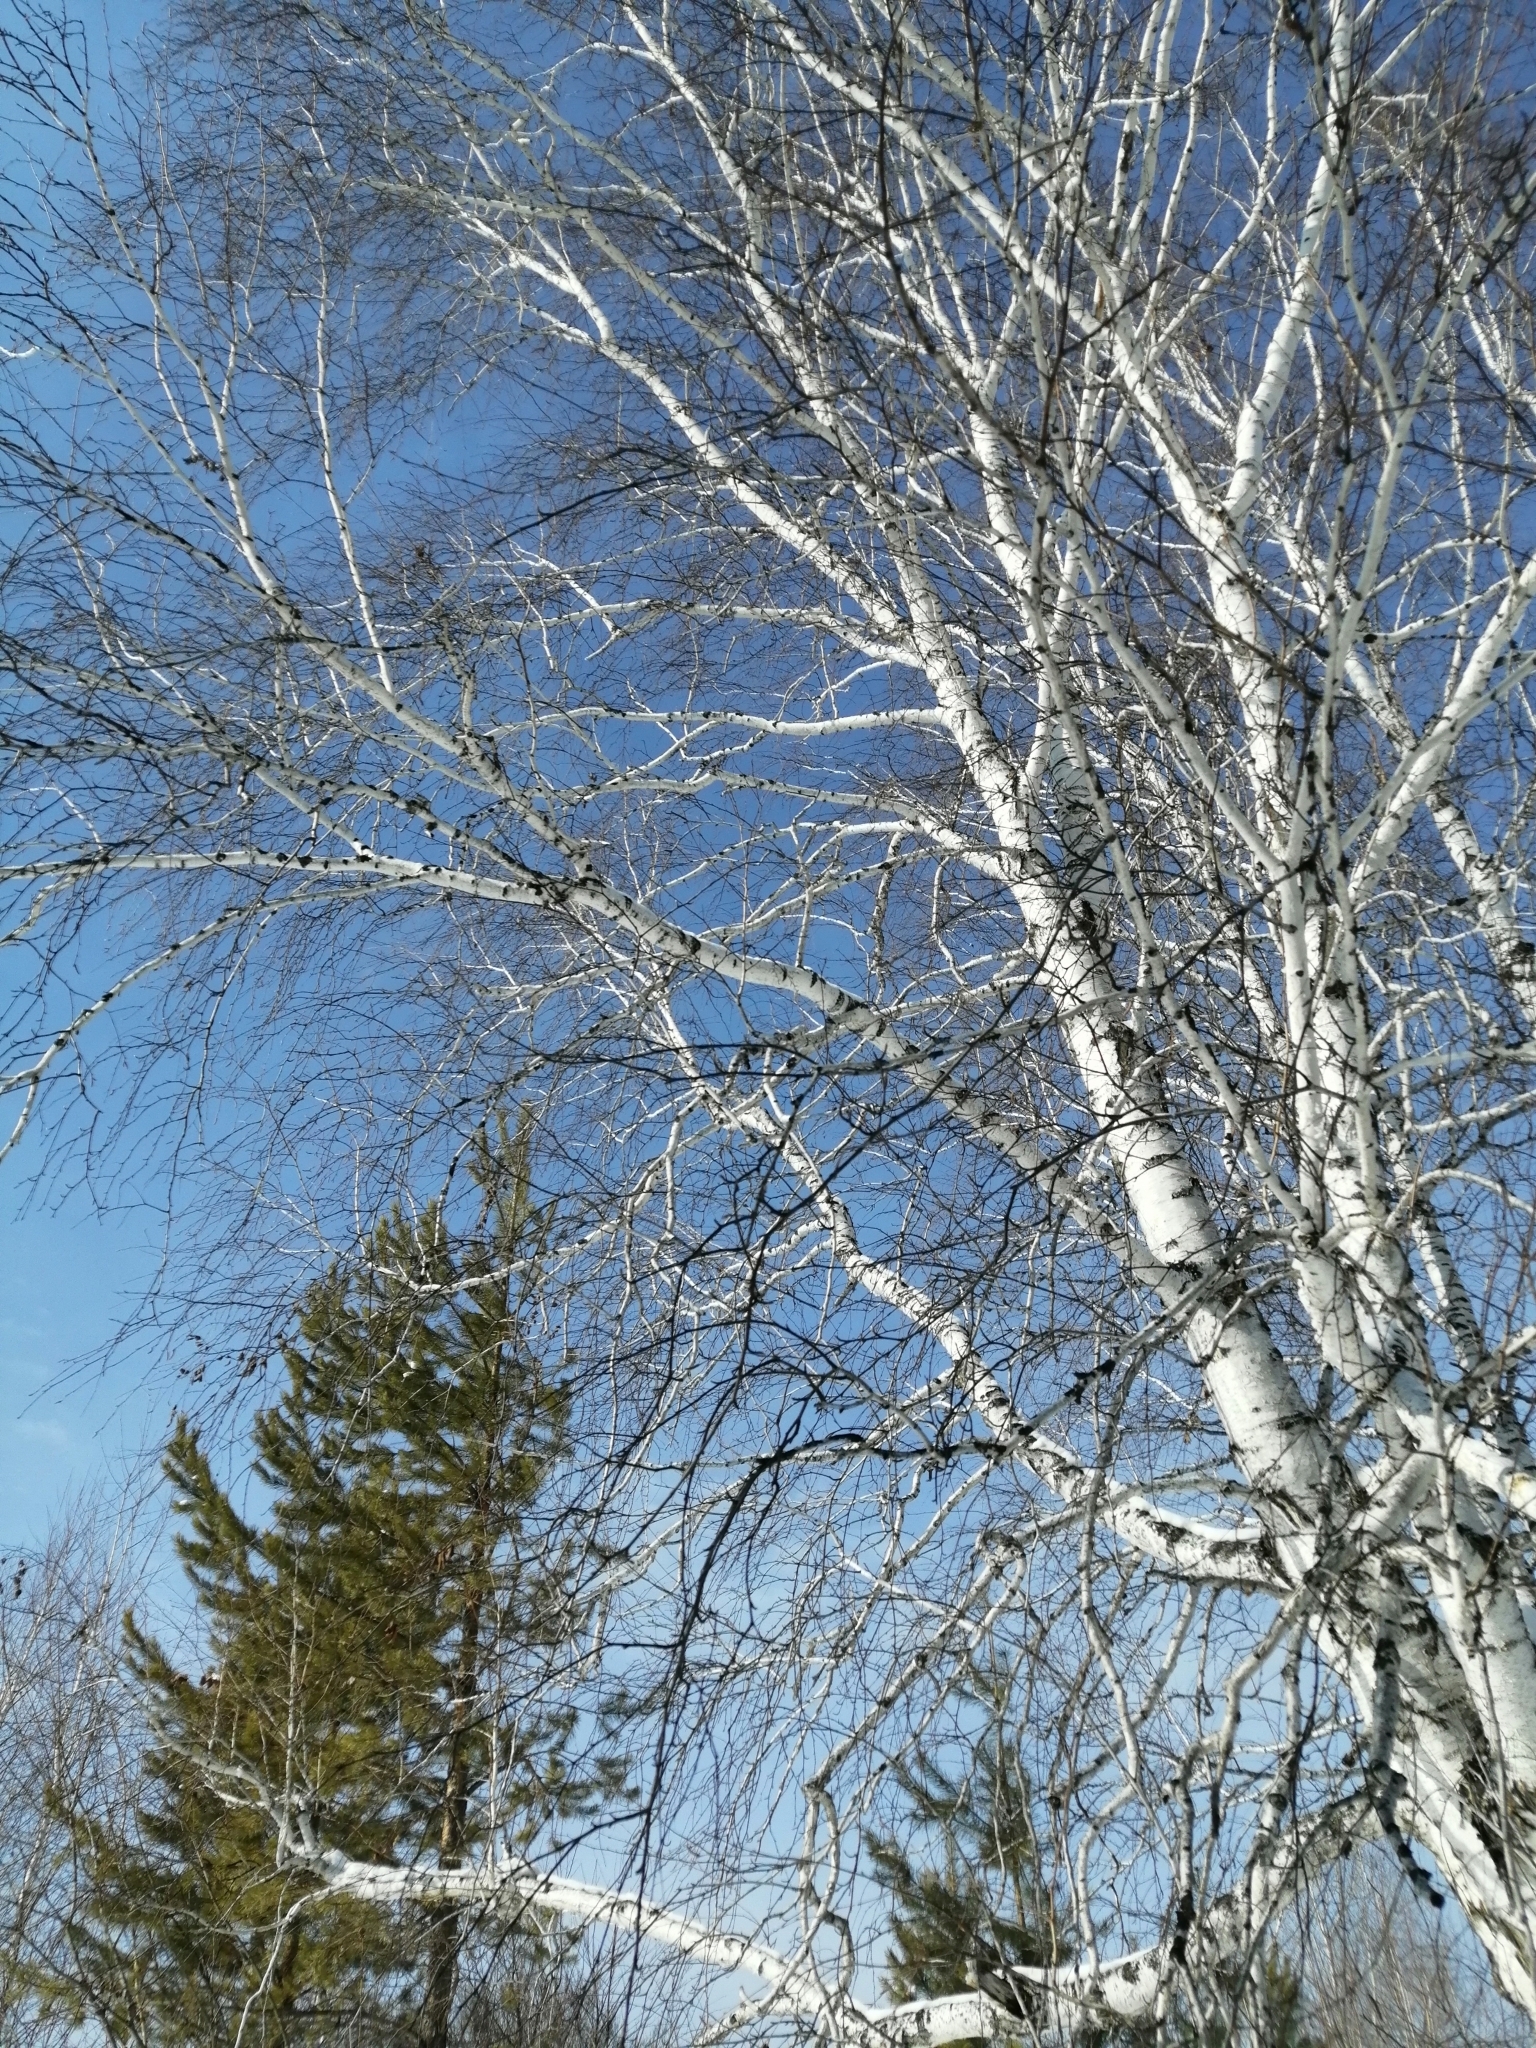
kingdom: Plantae
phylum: Tracheophyta
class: Magnoliopsida
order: Fagales
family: Betulaceae
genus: Betula
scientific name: Betula pendula
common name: Silver birch
